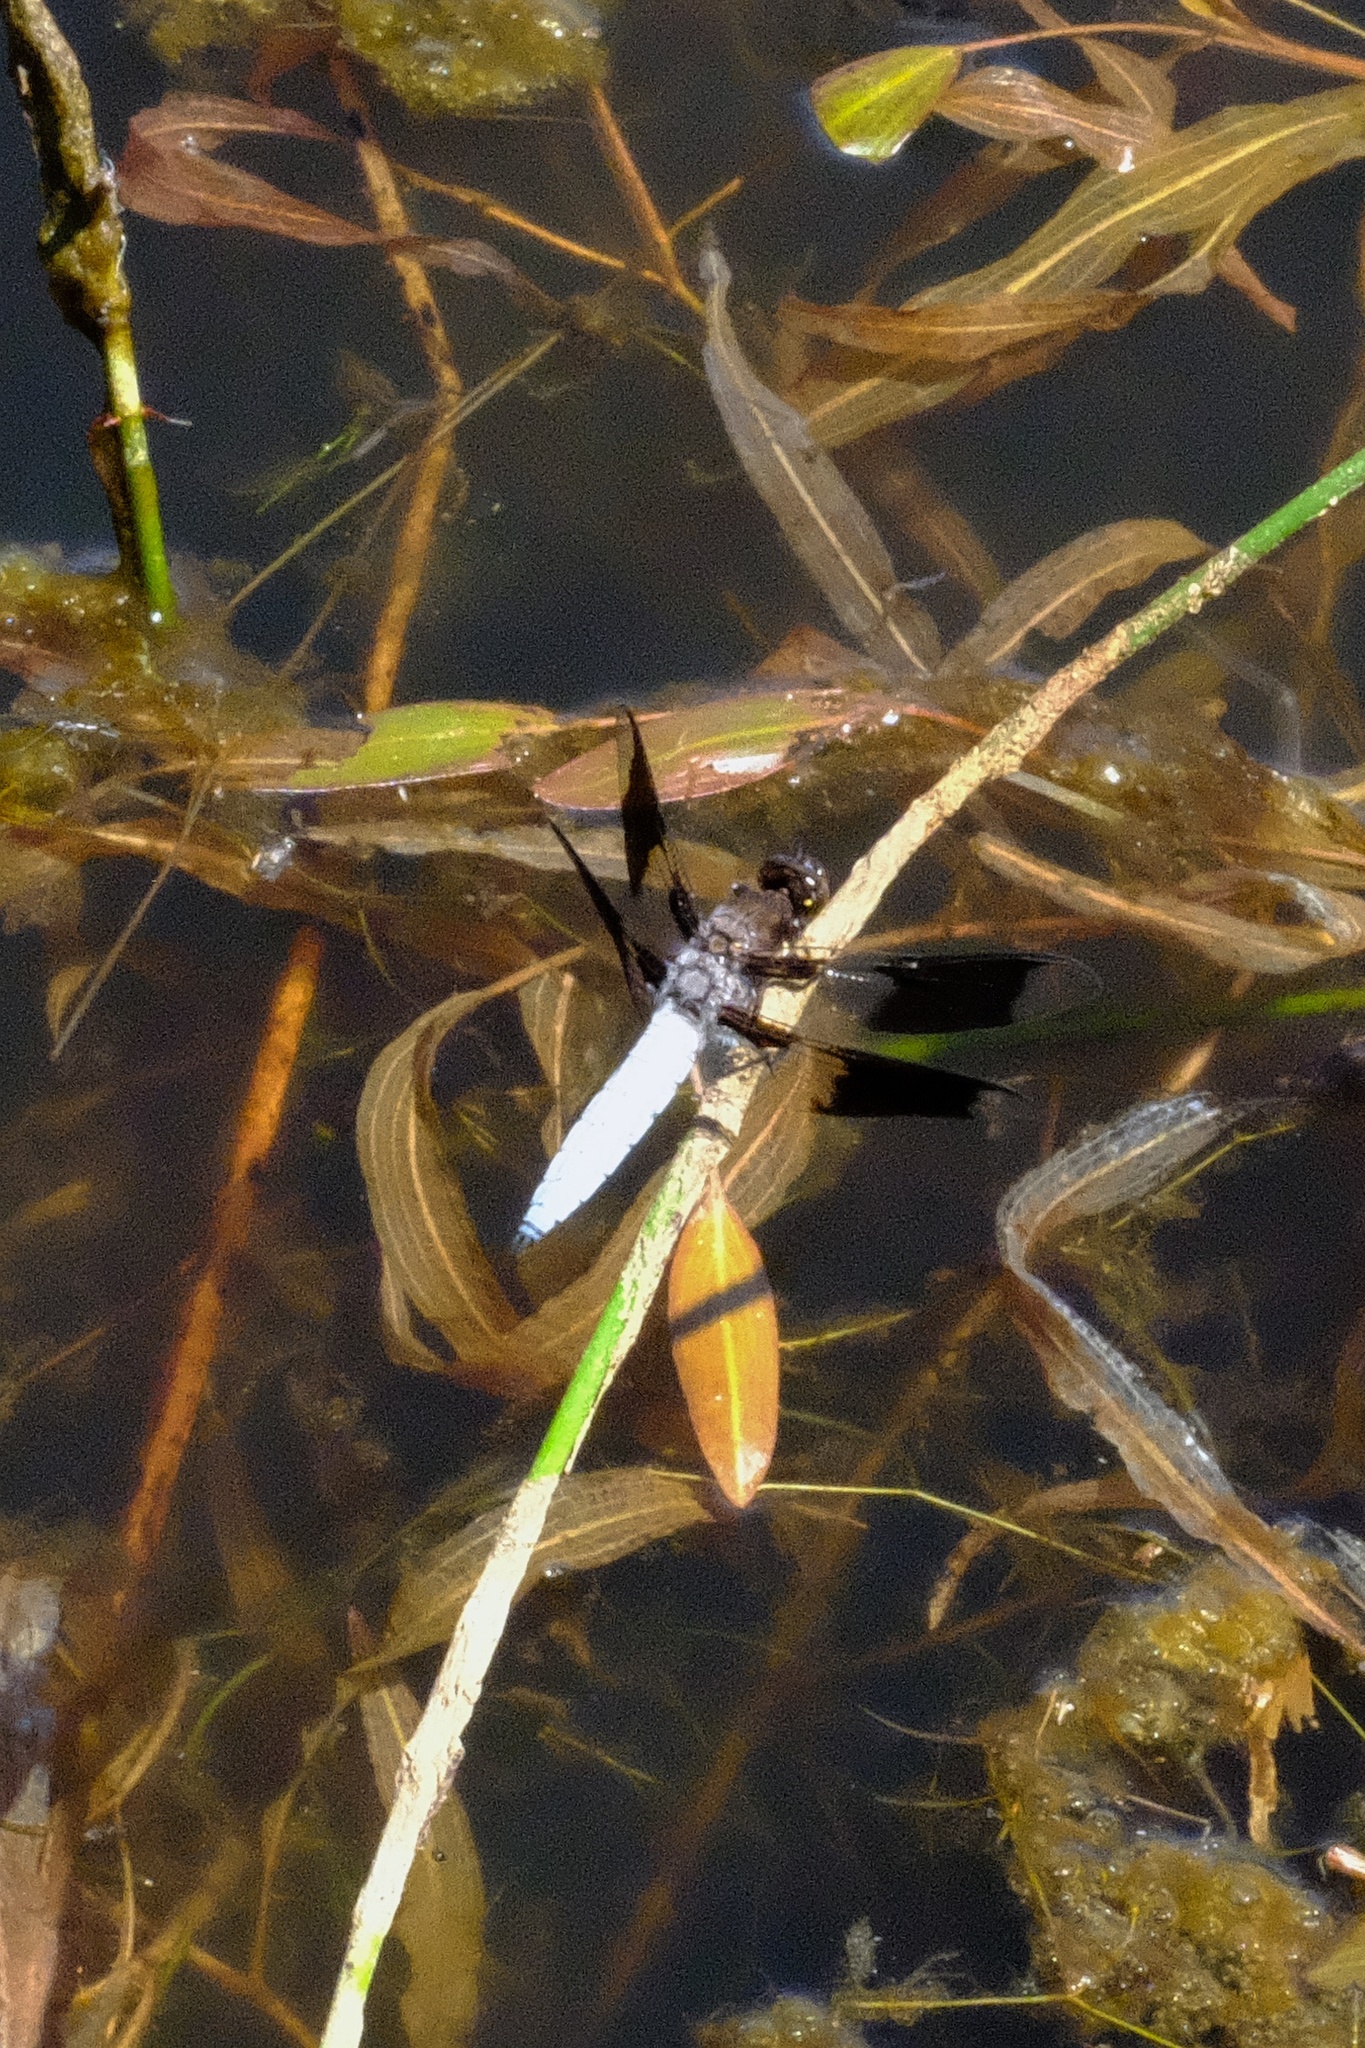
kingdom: Animalia
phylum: Arthropoda
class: Insecta
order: Odonata
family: Libellulidae
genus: Plathemis
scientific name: Plathemis lydia
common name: Common whitetail
